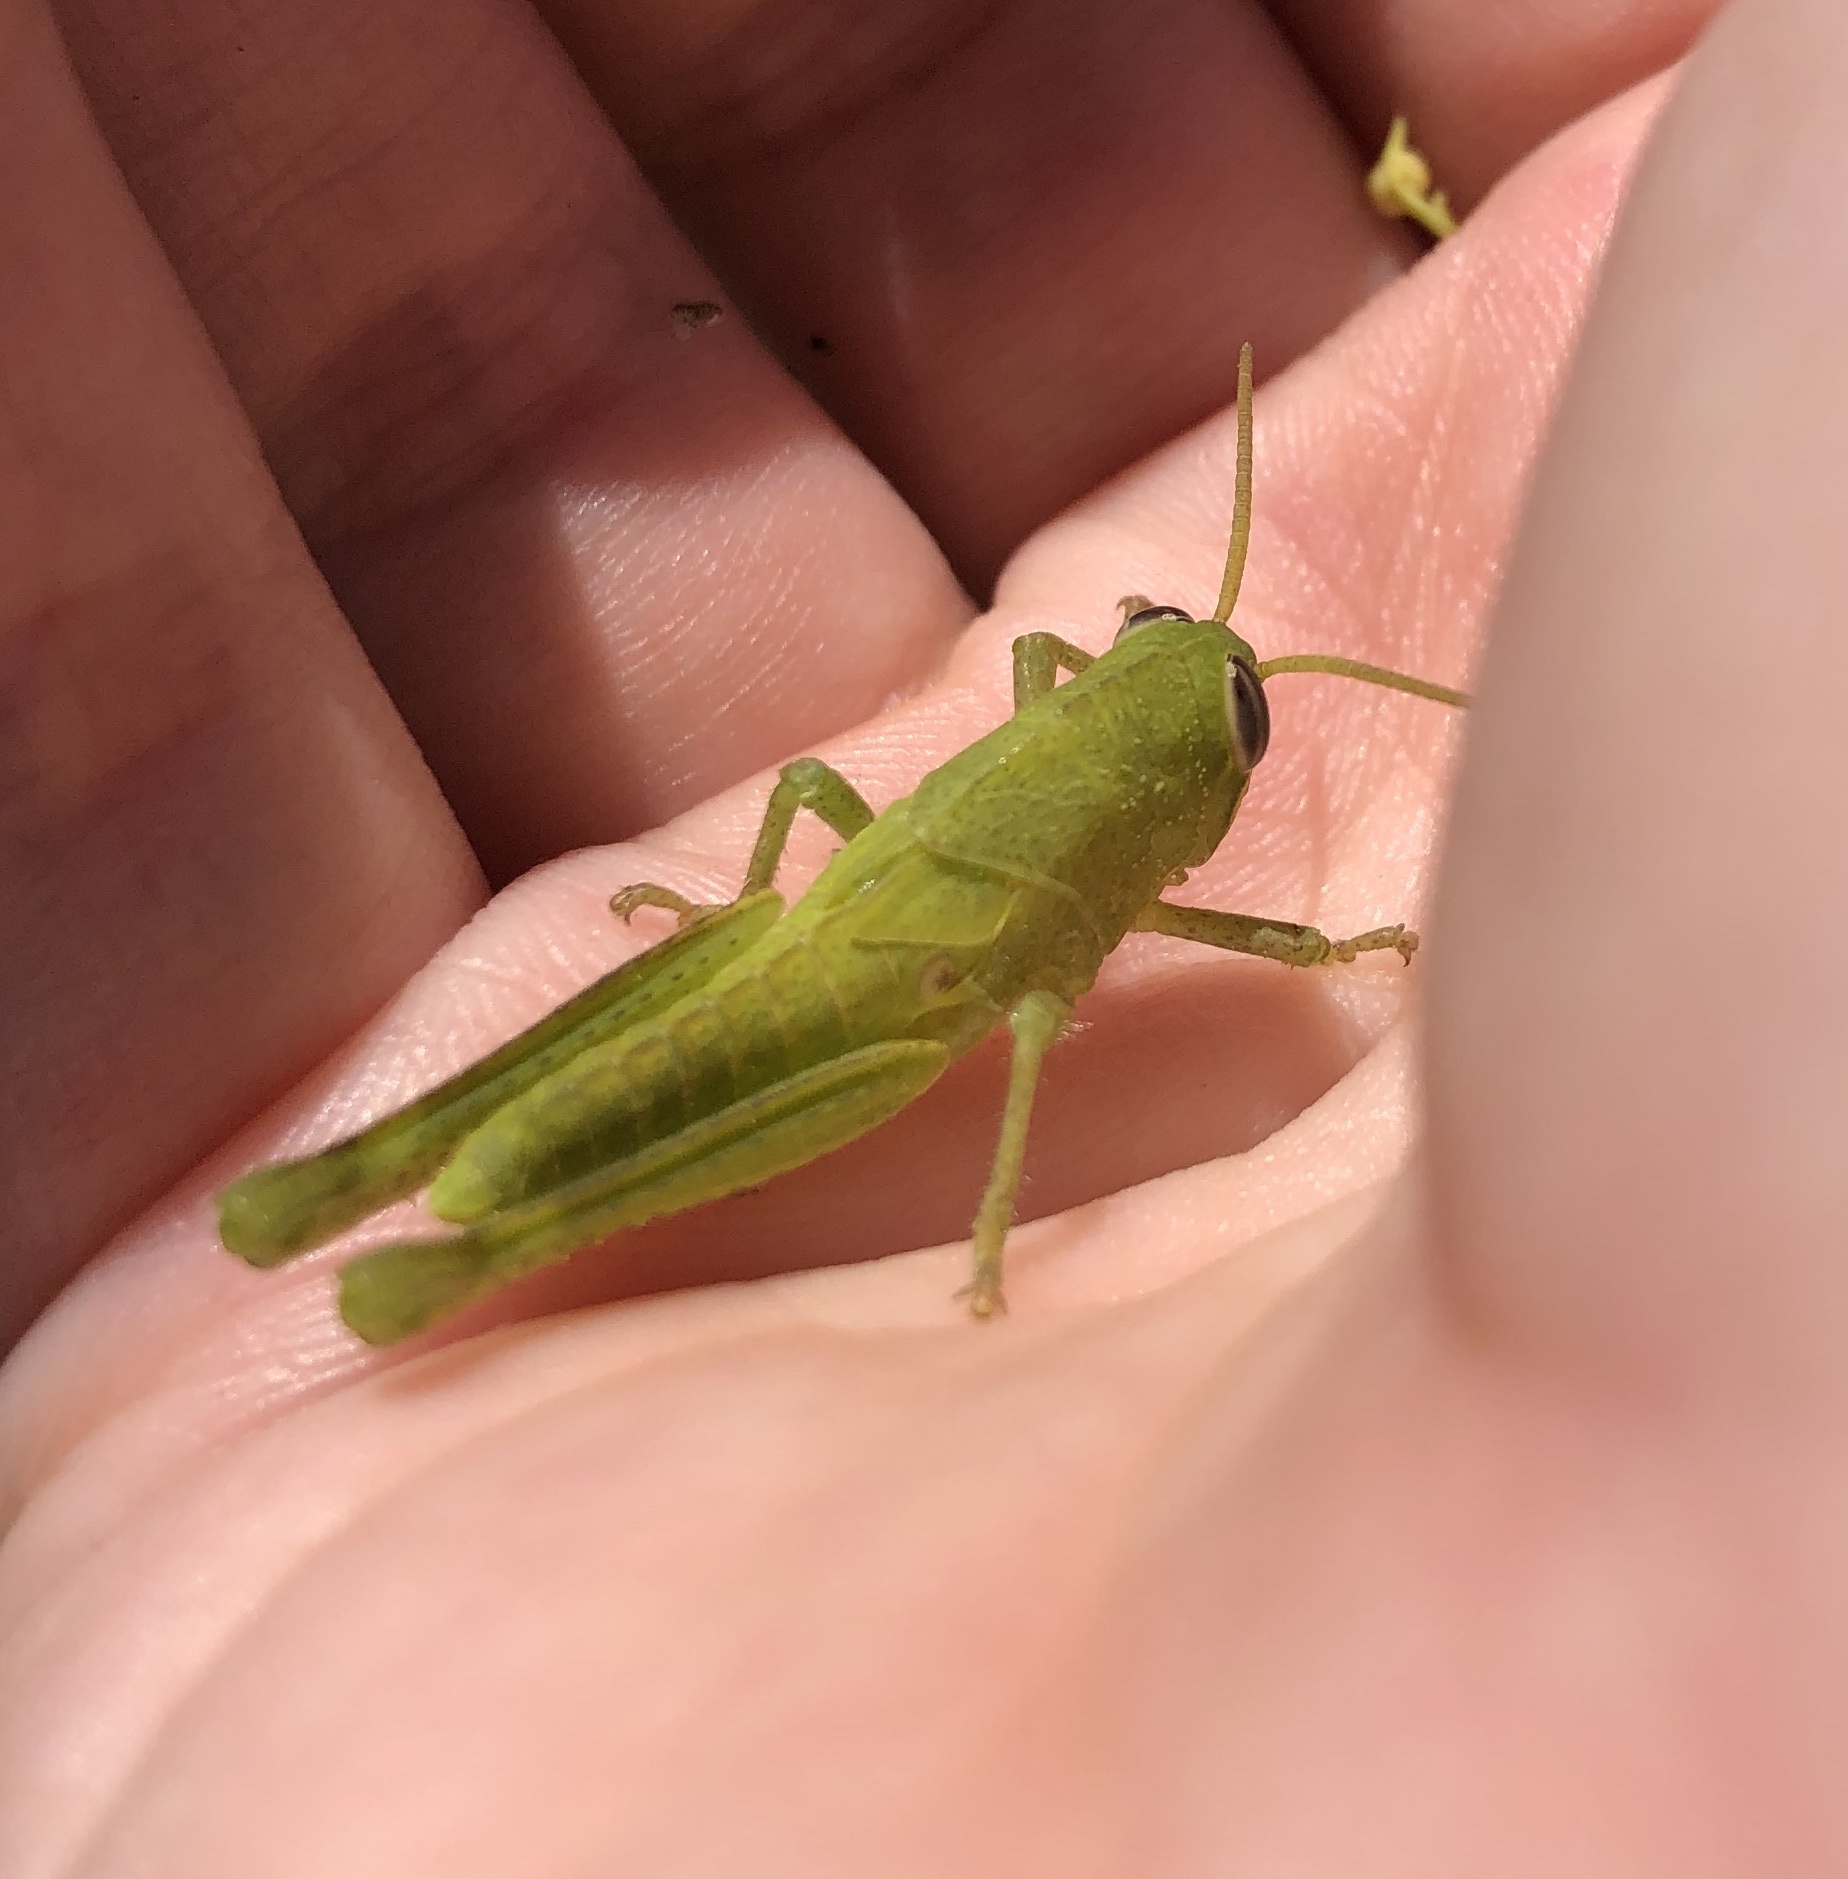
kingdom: Animalia
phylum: Arthropoda
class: Insecta
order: Orthoptera
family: Acrididae
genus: Schistocerca
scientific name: Schistocerca nitens
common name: Vagrant grasshopper
